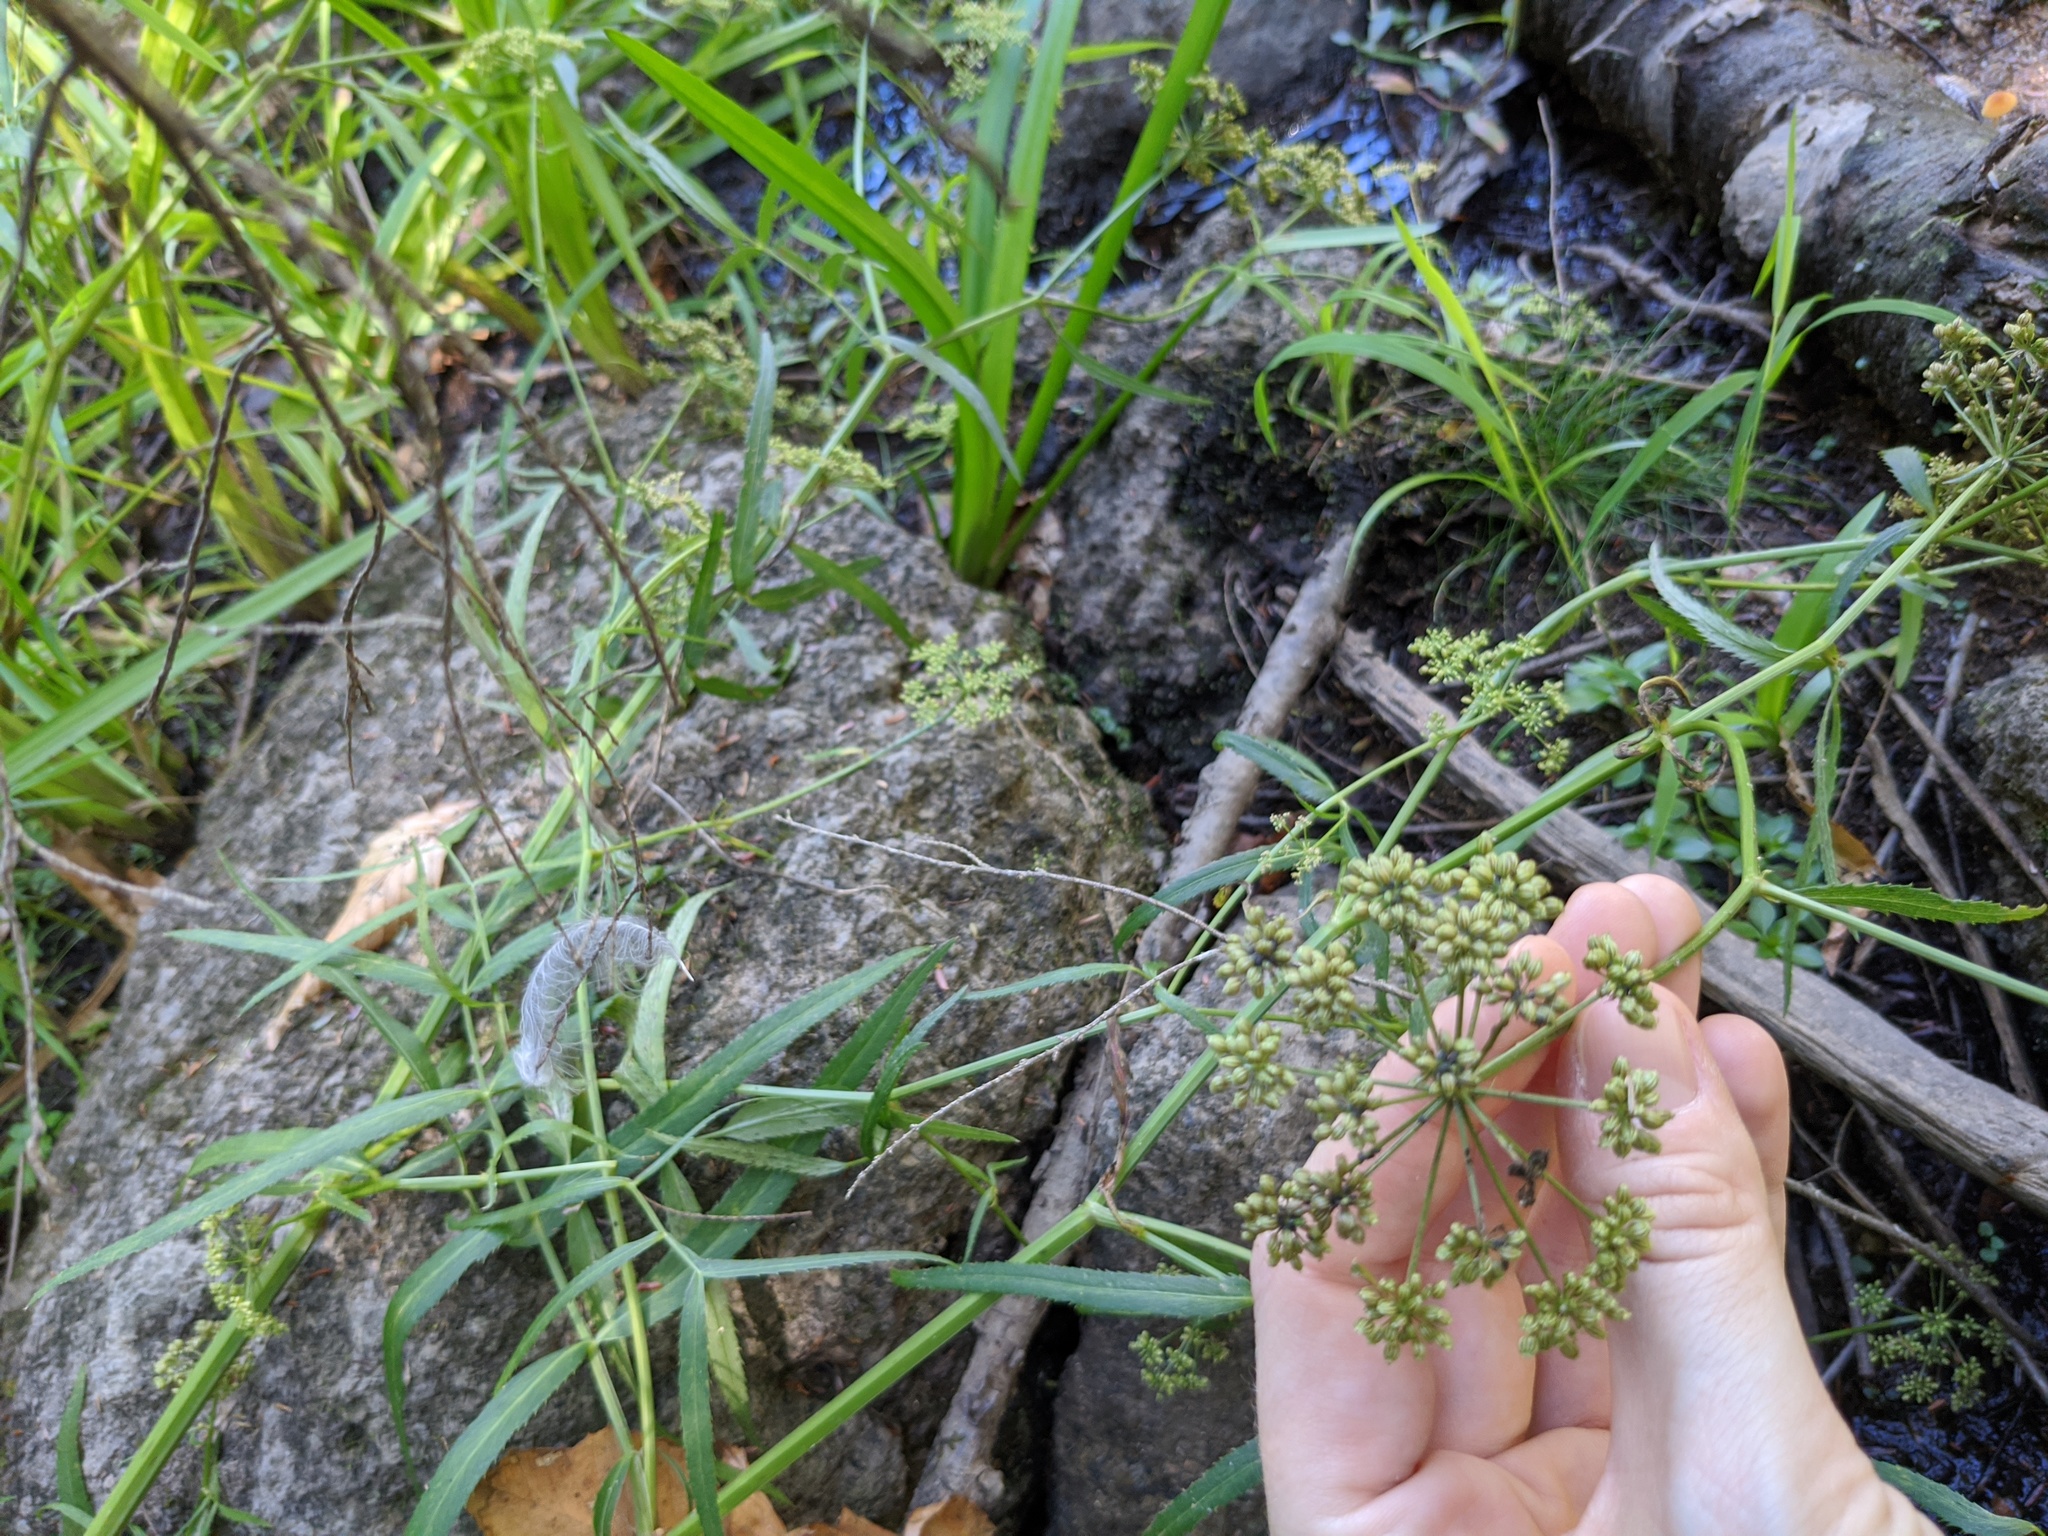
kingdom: Plantae
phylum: Tracheophyta
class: Magnoliopsida
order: Apiales
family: Apiaceae
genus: Sium
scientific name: Sium suave
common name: Hemlock water-parsnip
